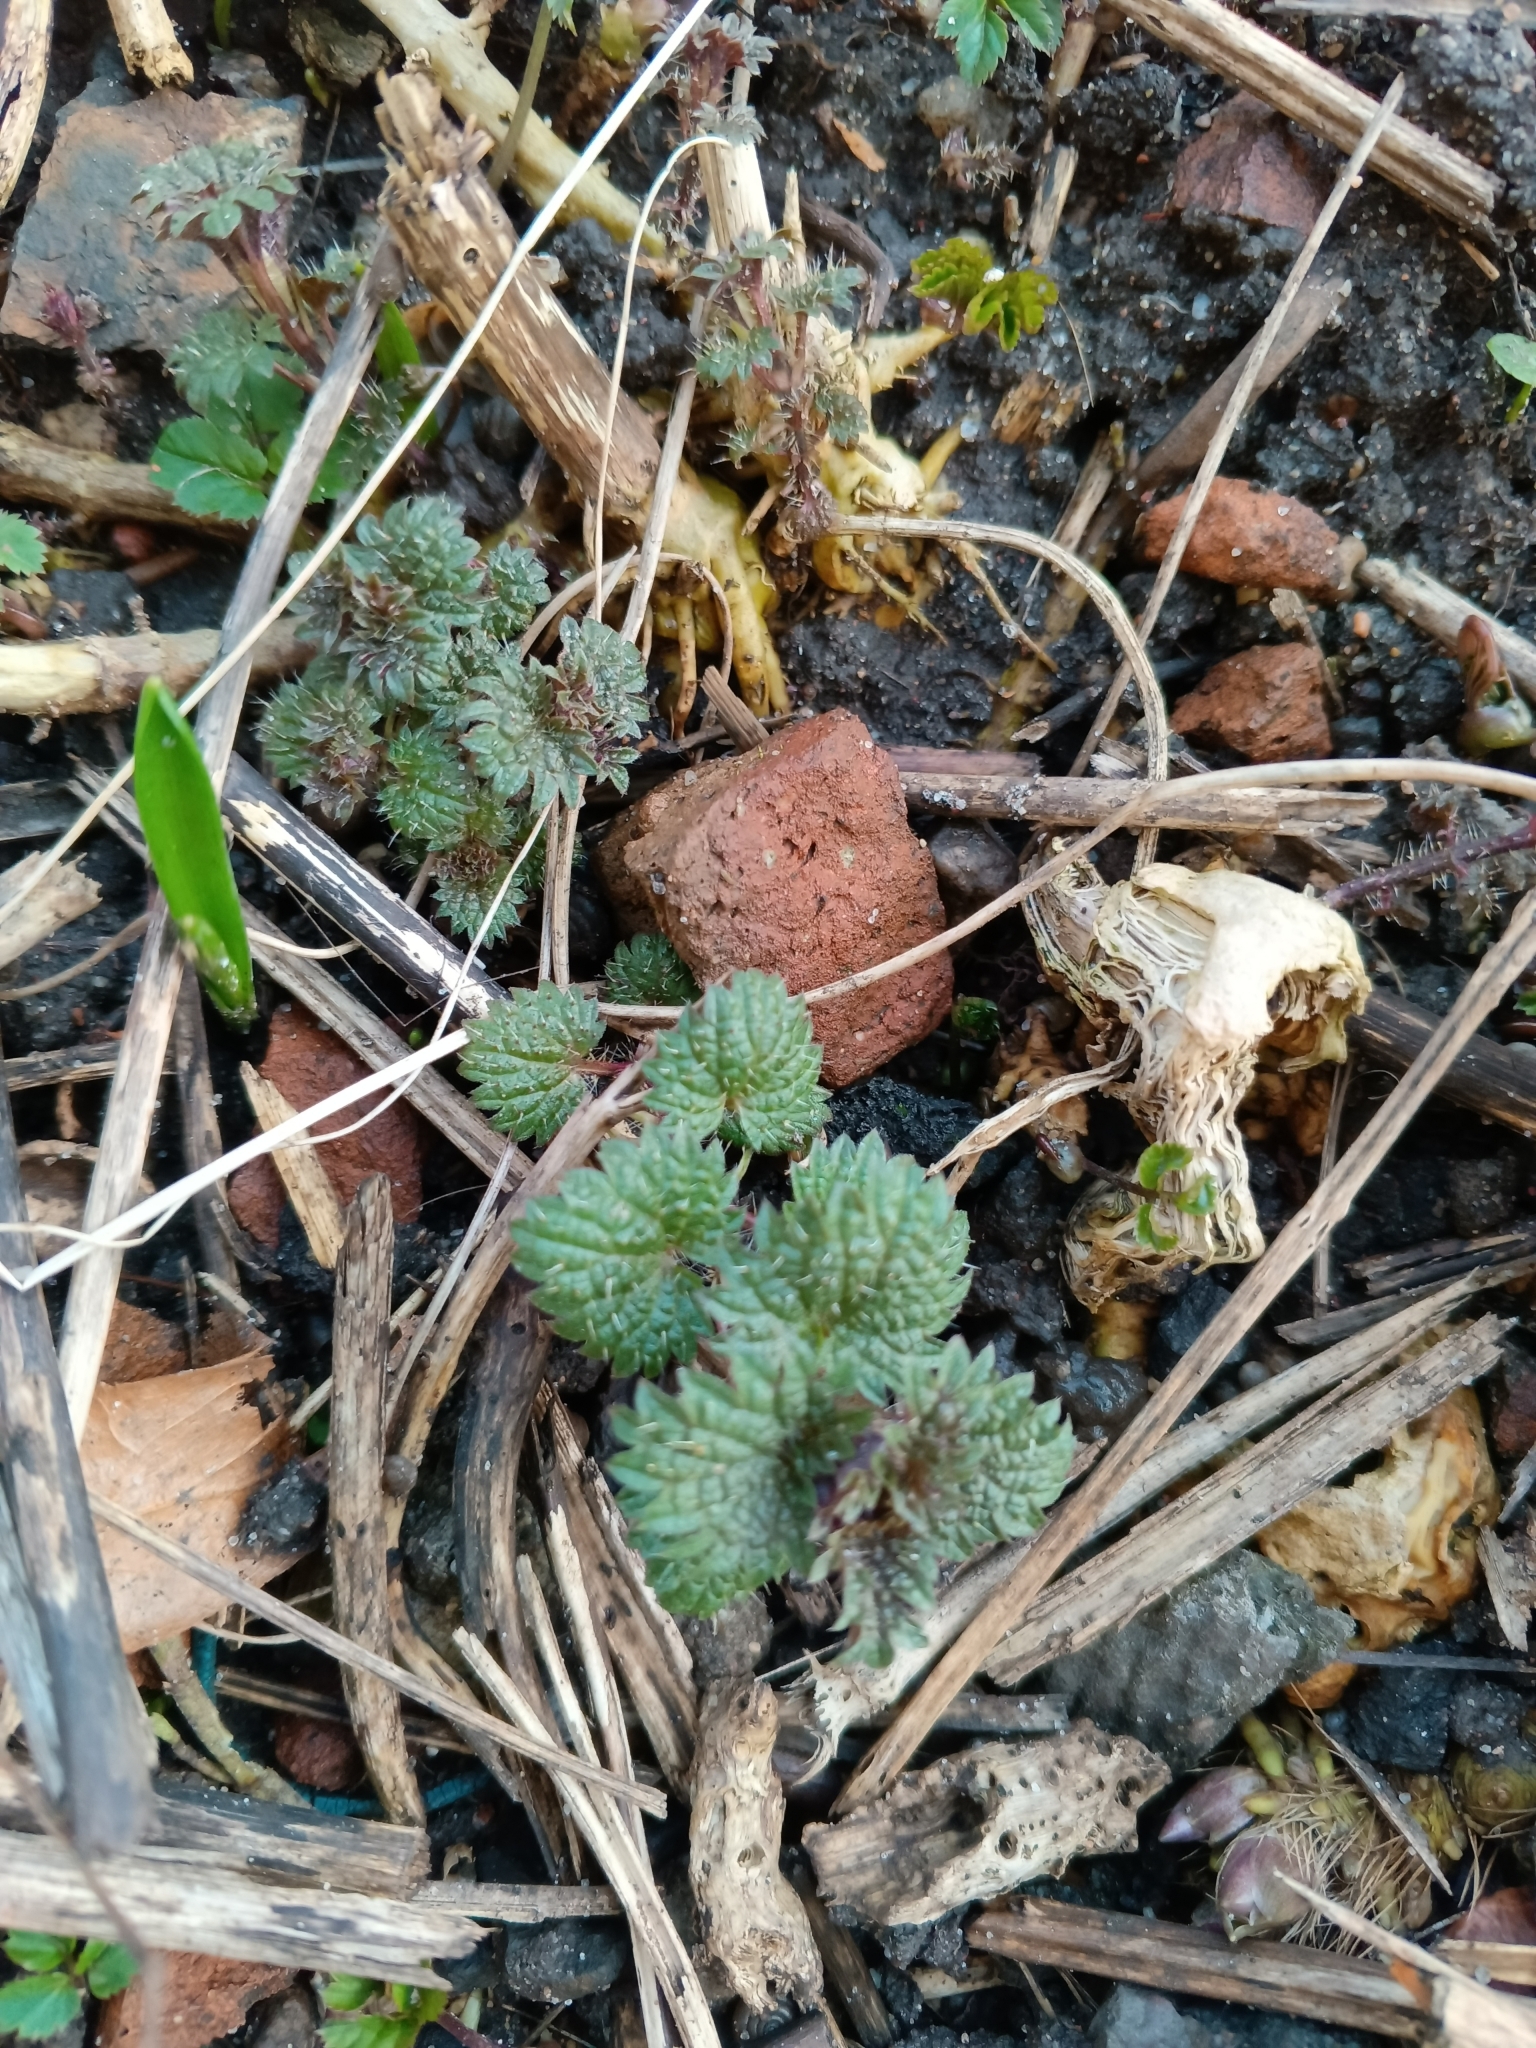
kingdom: Plantae
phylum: Tracheophyta
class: Magnoliopsida
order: Rosales
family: Urticaceae
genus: Urtica
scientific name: Urtica dioica
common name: Common nettle
